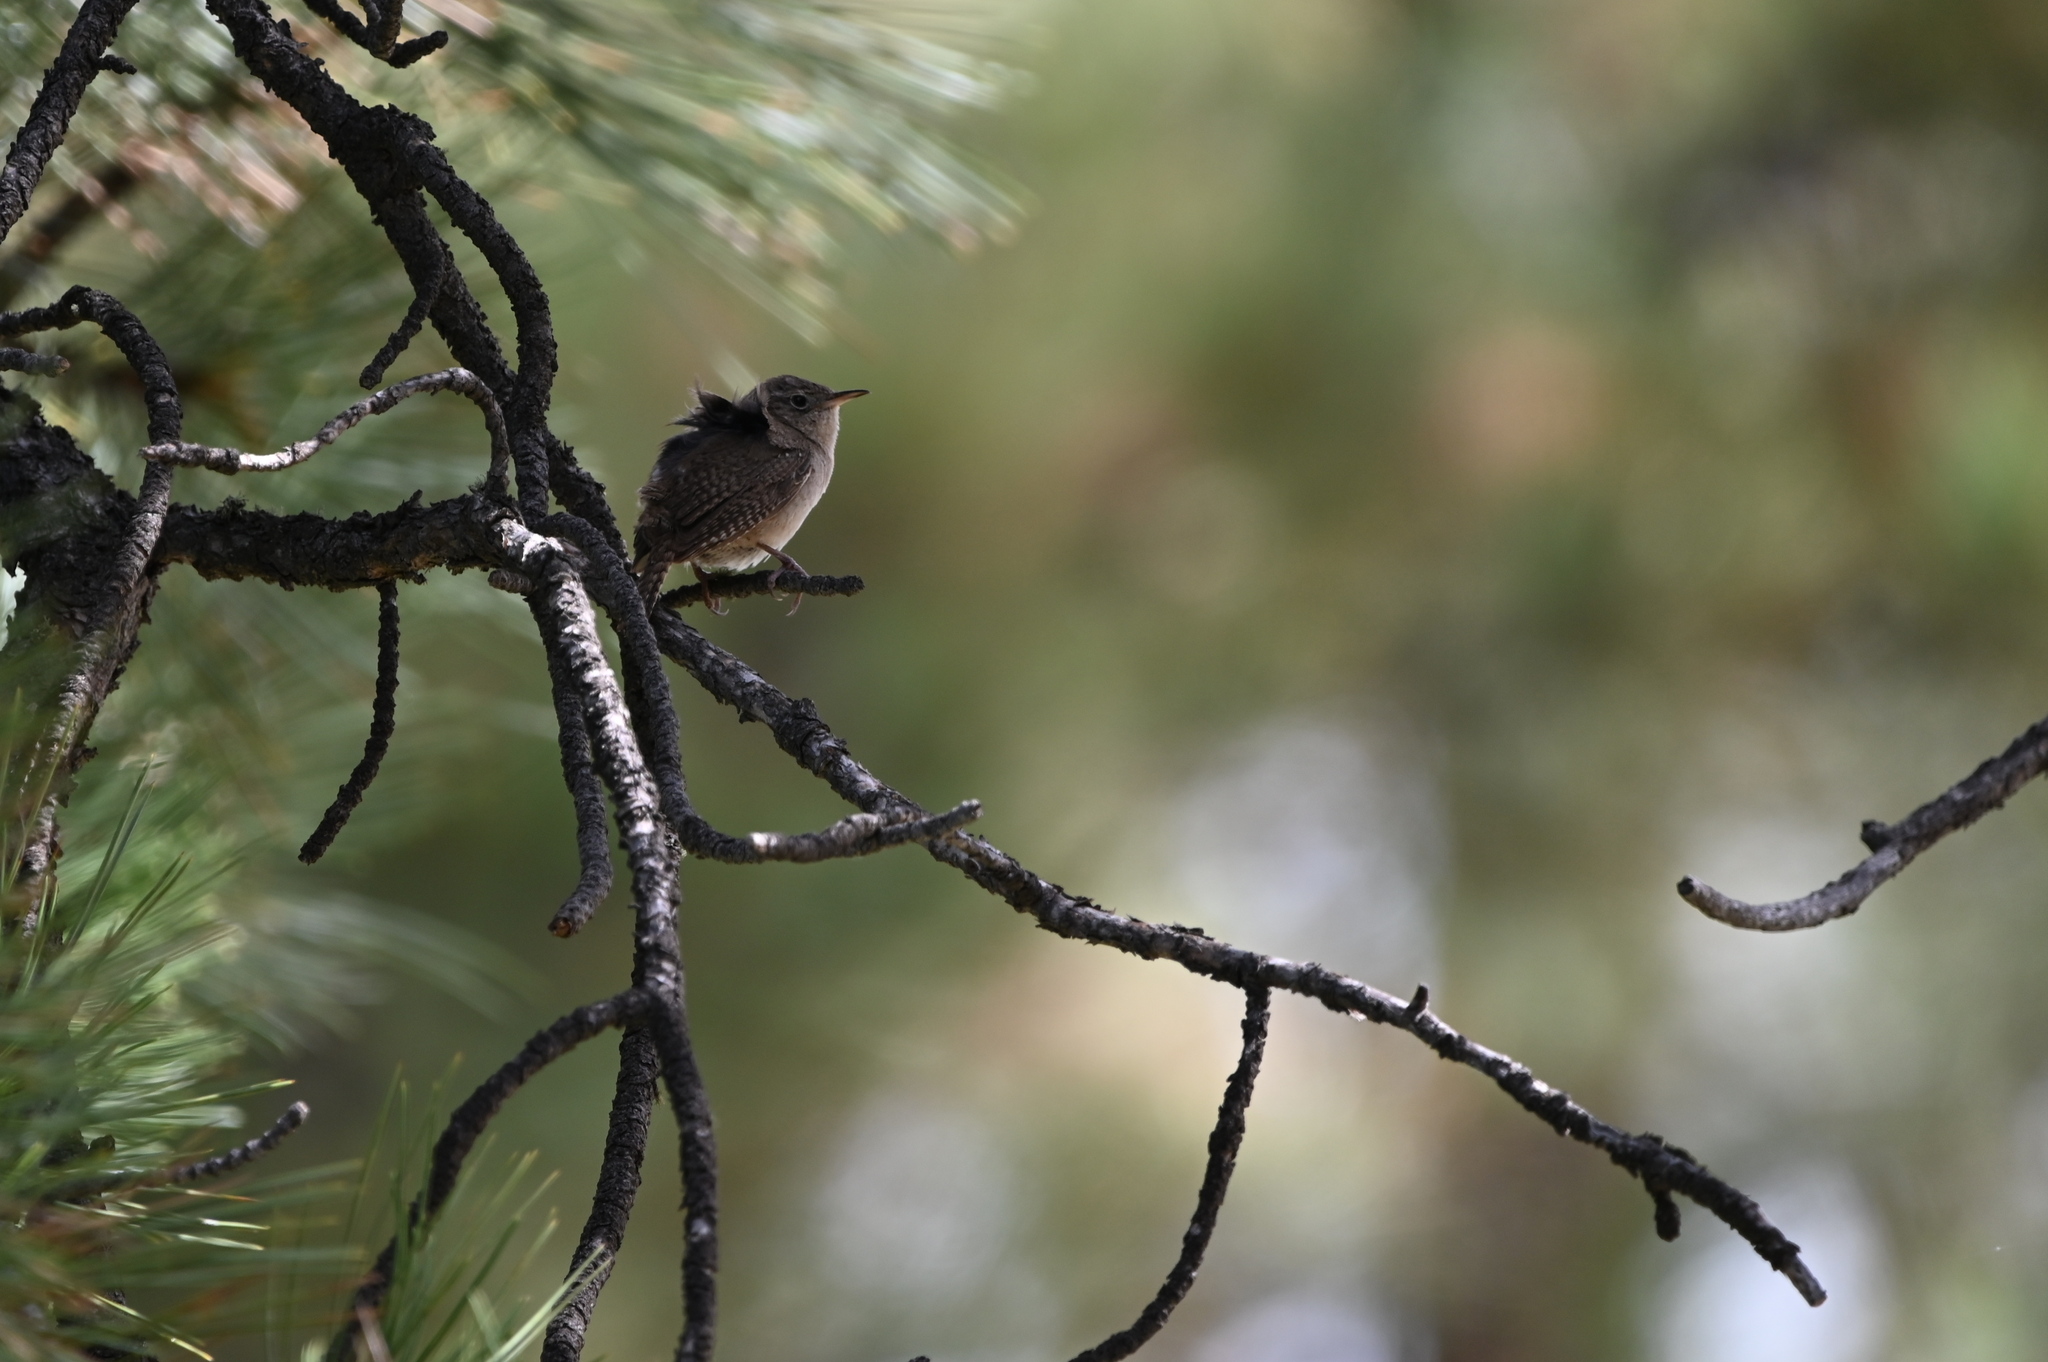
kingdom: Animalia
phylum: Chordata
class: Aves
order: Passeriformes
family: Troglodytidae
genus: Troglodytes
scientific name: Troglodytes aedon
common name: House wren
